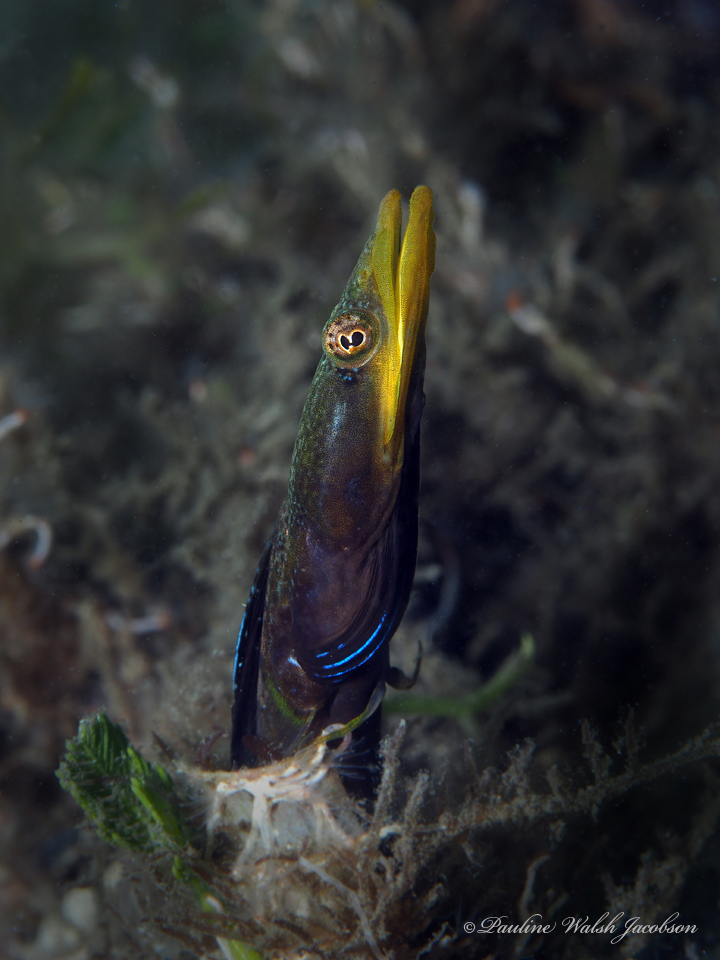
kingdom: Animalia
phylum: Chordata
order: Perciformes
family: Chaenopsidae
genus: Chaenopsis
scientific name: Chaenopsis ocellata
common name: Bluethroat pikeblenny
